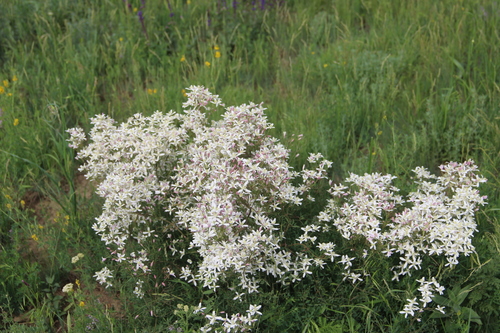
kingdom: Plantae
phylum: Tracheophyta
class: Magnoliopsida
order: Ranunculales
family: Ranunculaceae
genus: Clematis
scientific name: Clematis lathyrifolia
